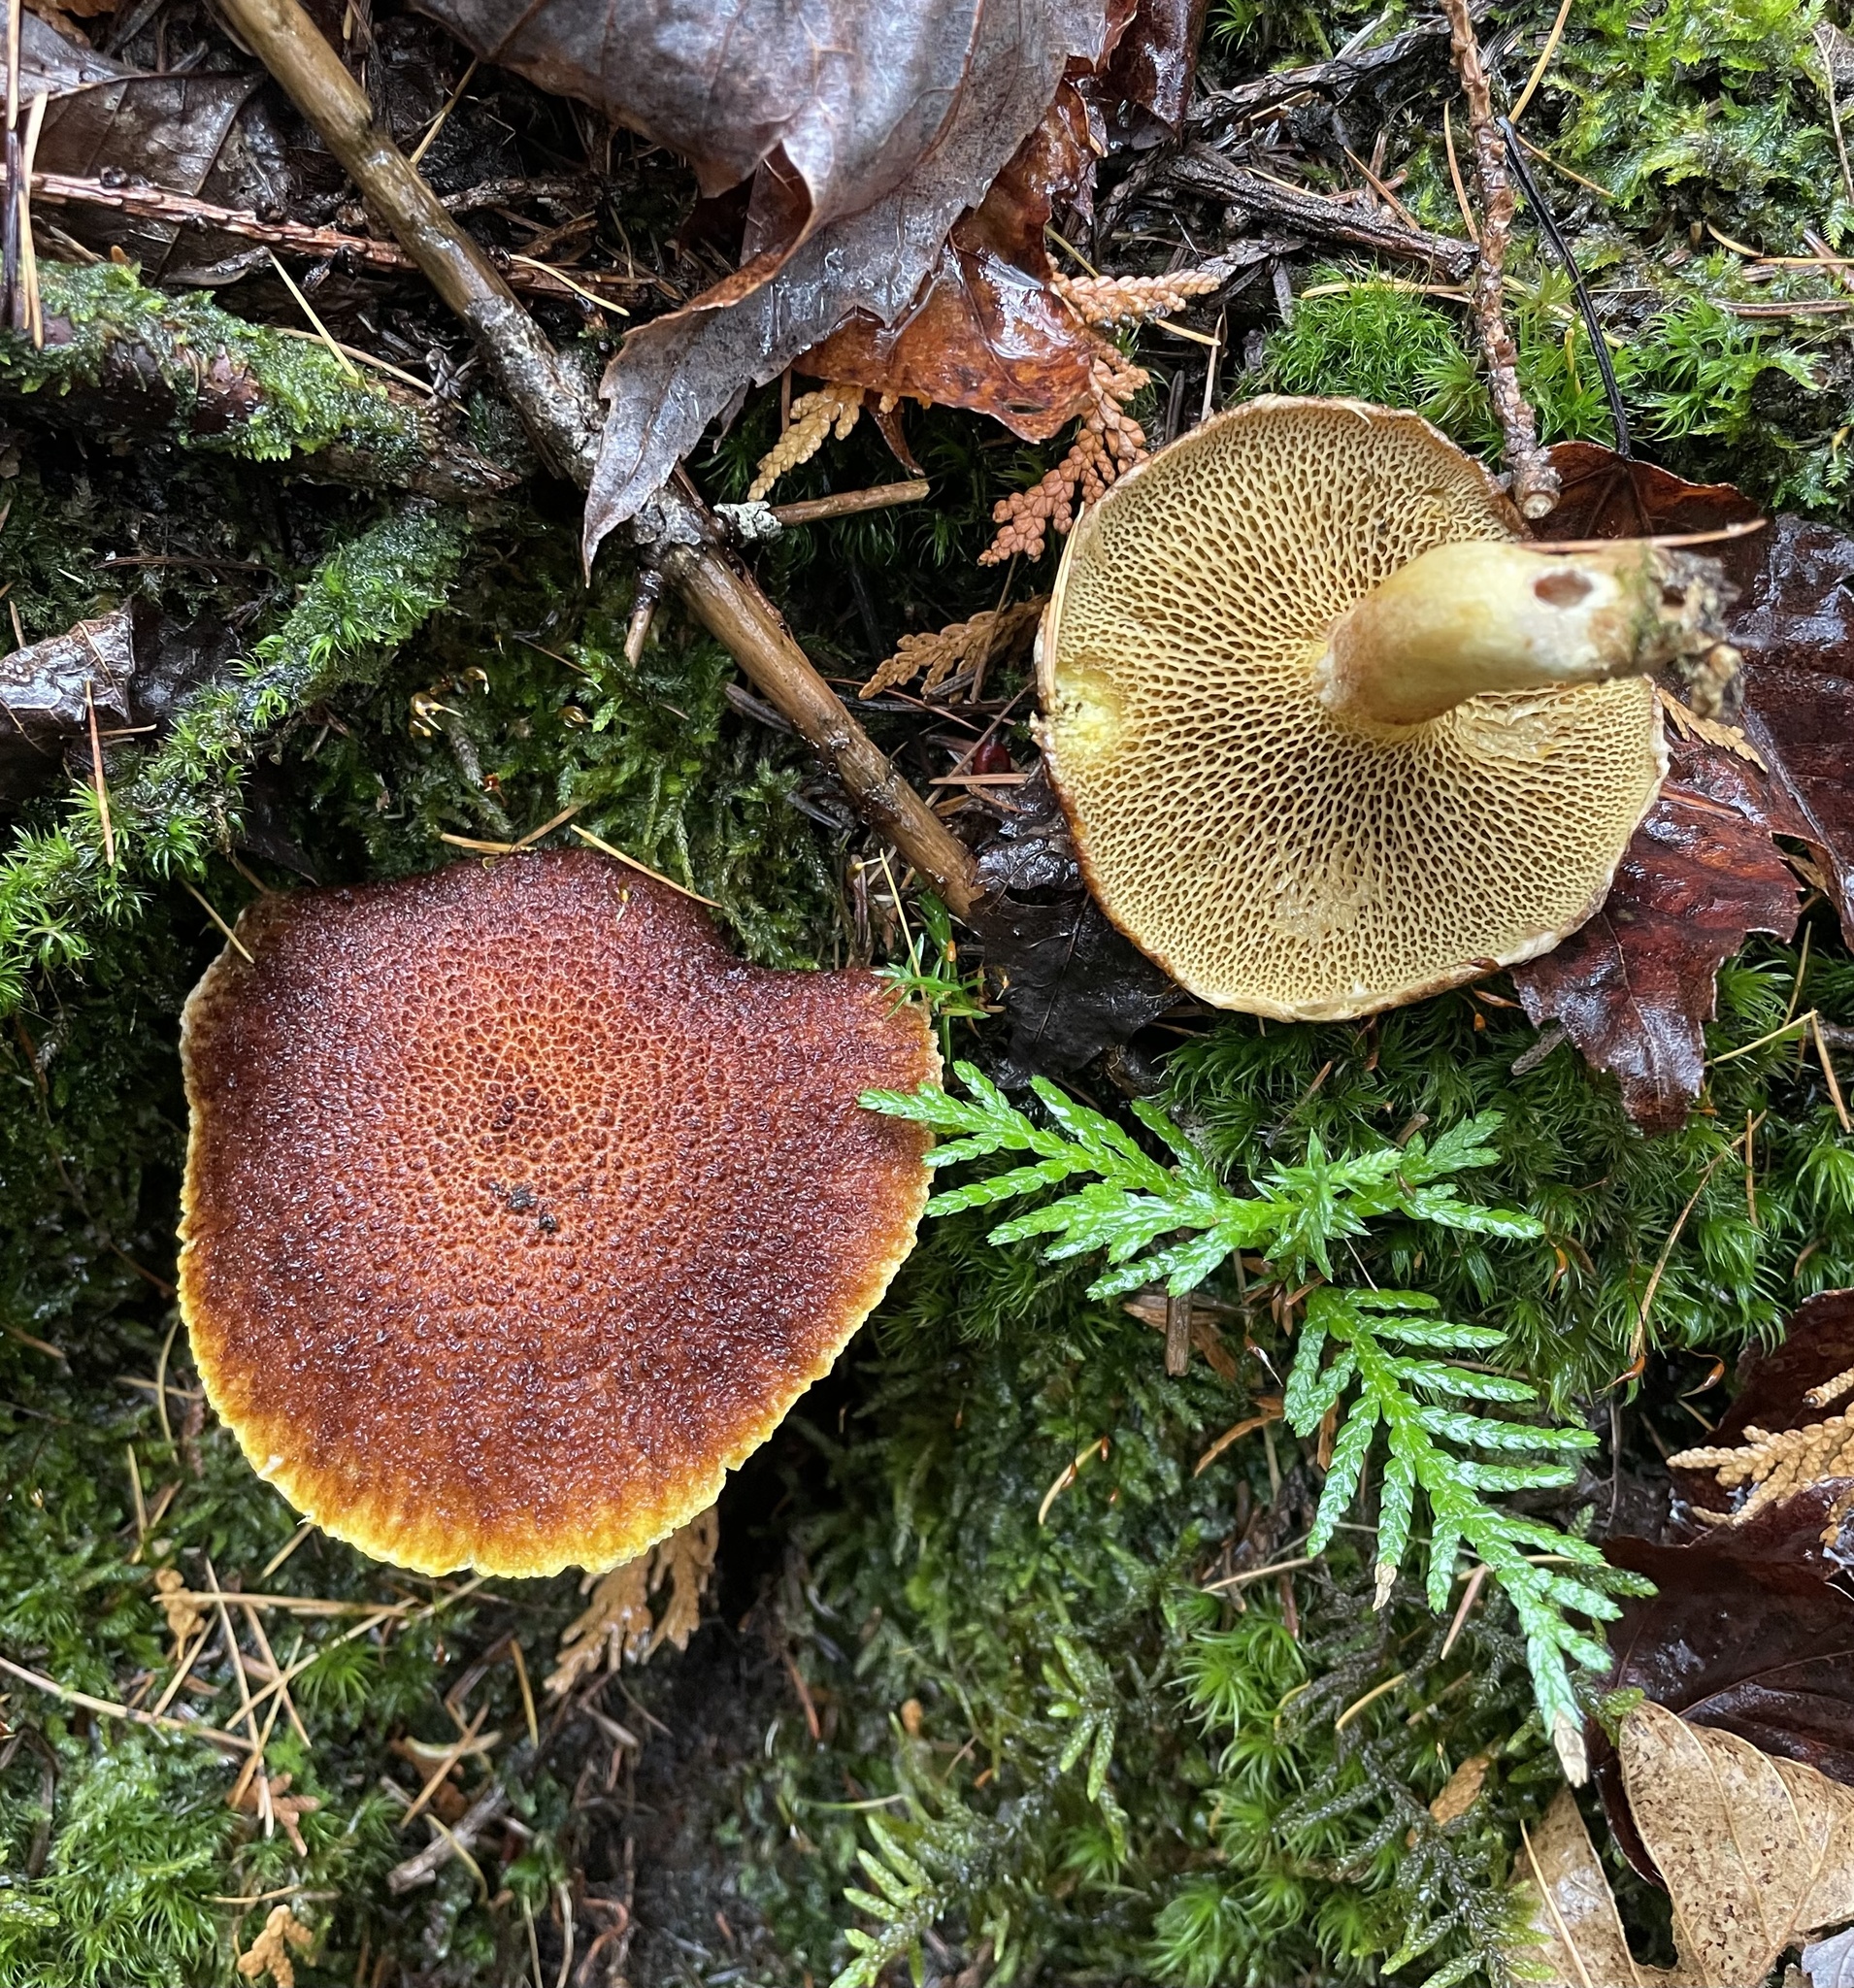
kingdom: Fungi
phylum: Basidiomycota
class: Agaricomycetes
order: Boletales
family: Suillaceae
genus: Boletinus
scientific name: Boletinus ampliporus
